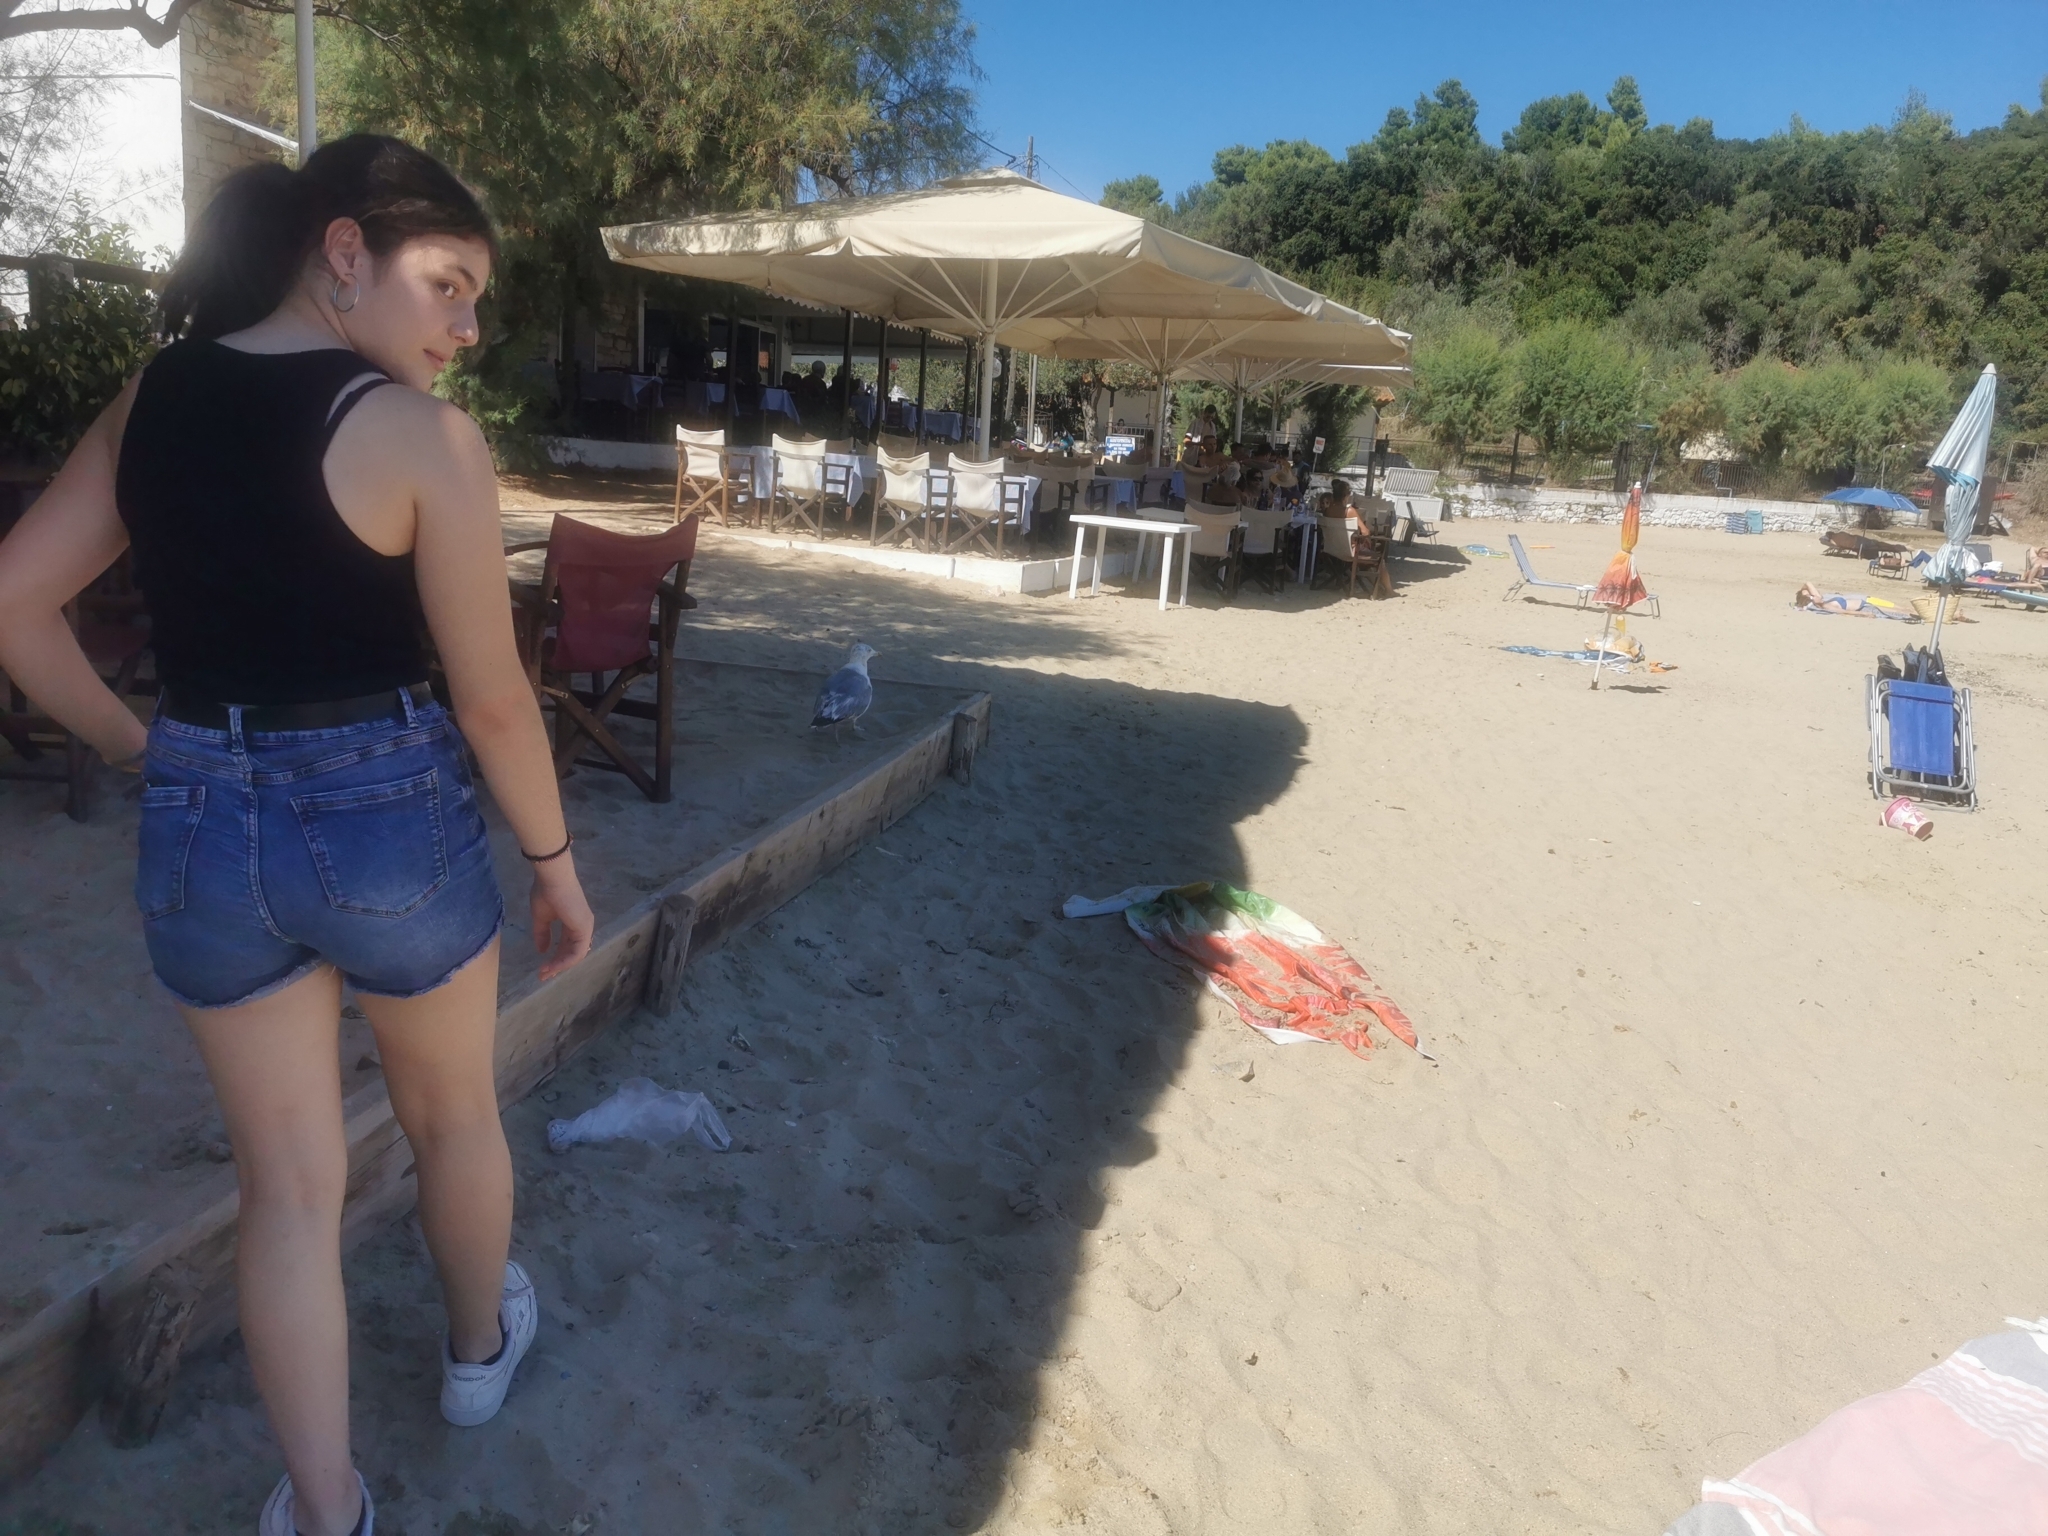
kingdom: Animalia
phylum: Chordata
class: Aves
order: Charadriiformes
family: Laridae
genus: Larus
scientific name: Larus michahellis
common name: Yellow-legged gull
